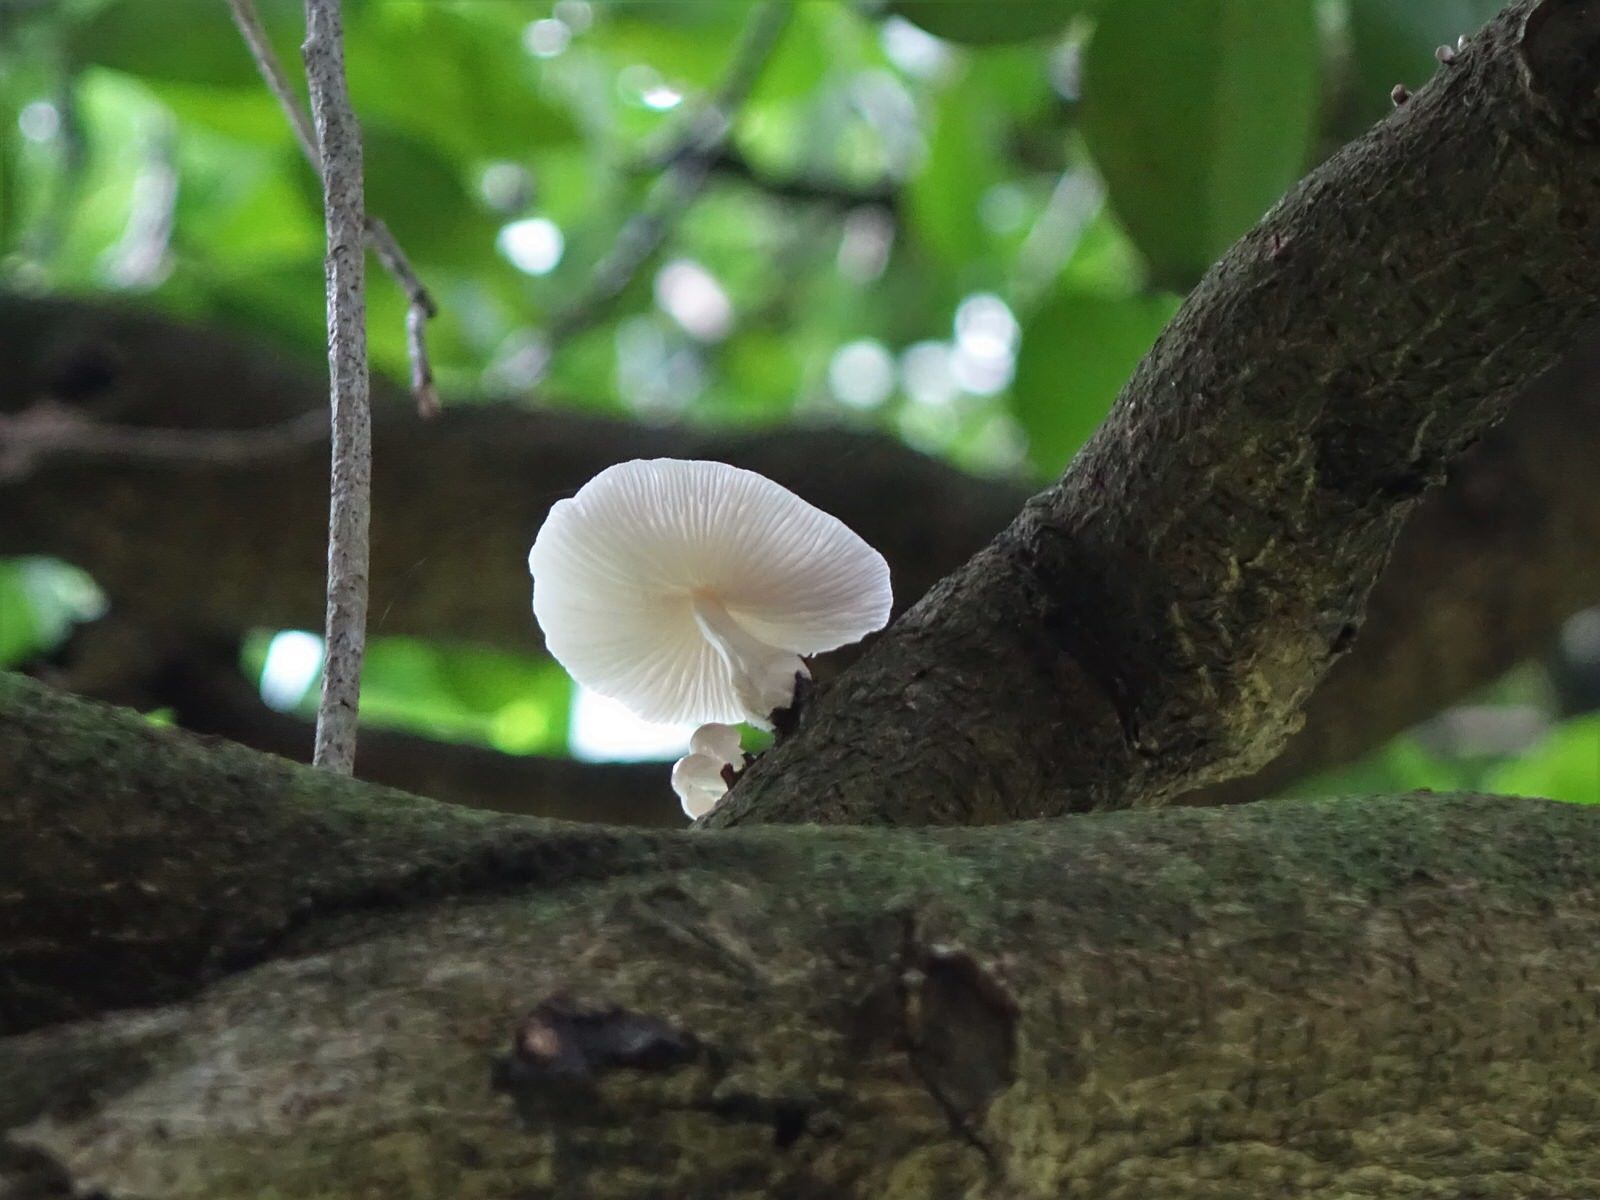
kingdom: Fungi
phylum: Basidiomycota
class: Agaricomycetes
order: Agaricales
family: Physalacriaceae
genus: Oudemansiella
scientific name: Oudemansiella australis
